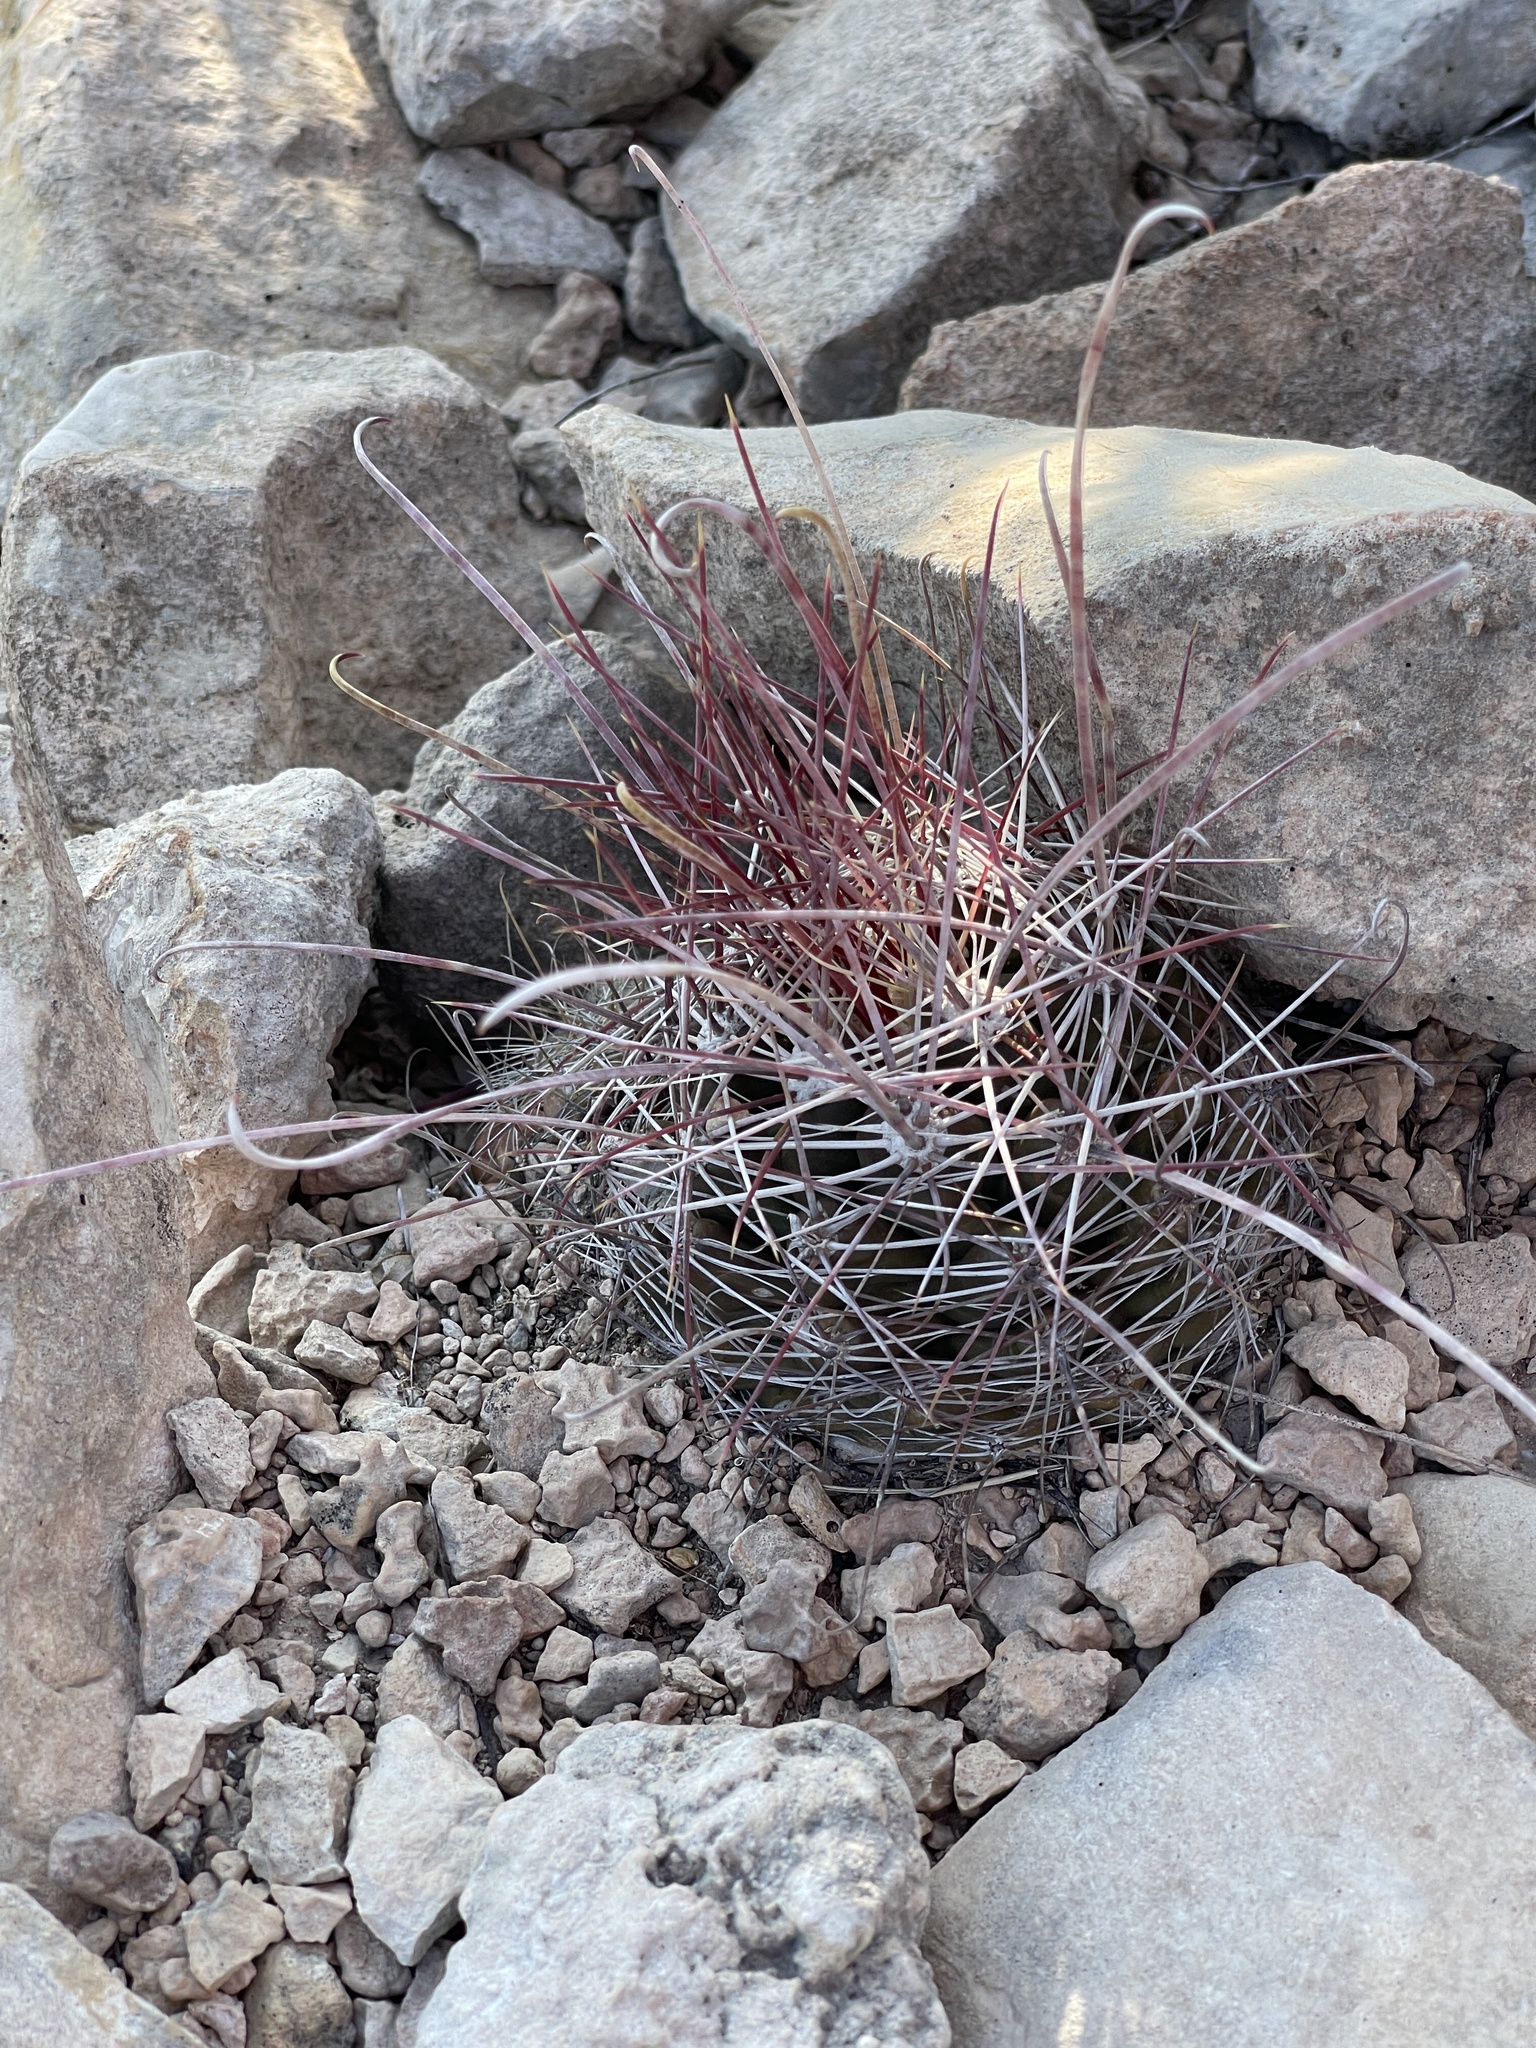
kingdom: Plantae
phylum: Tracheophyta
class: Magnoliopsida
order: Caryophyllales
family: Cactaceae
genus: Bisnaga
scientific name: Bisnaga hamatacantha
